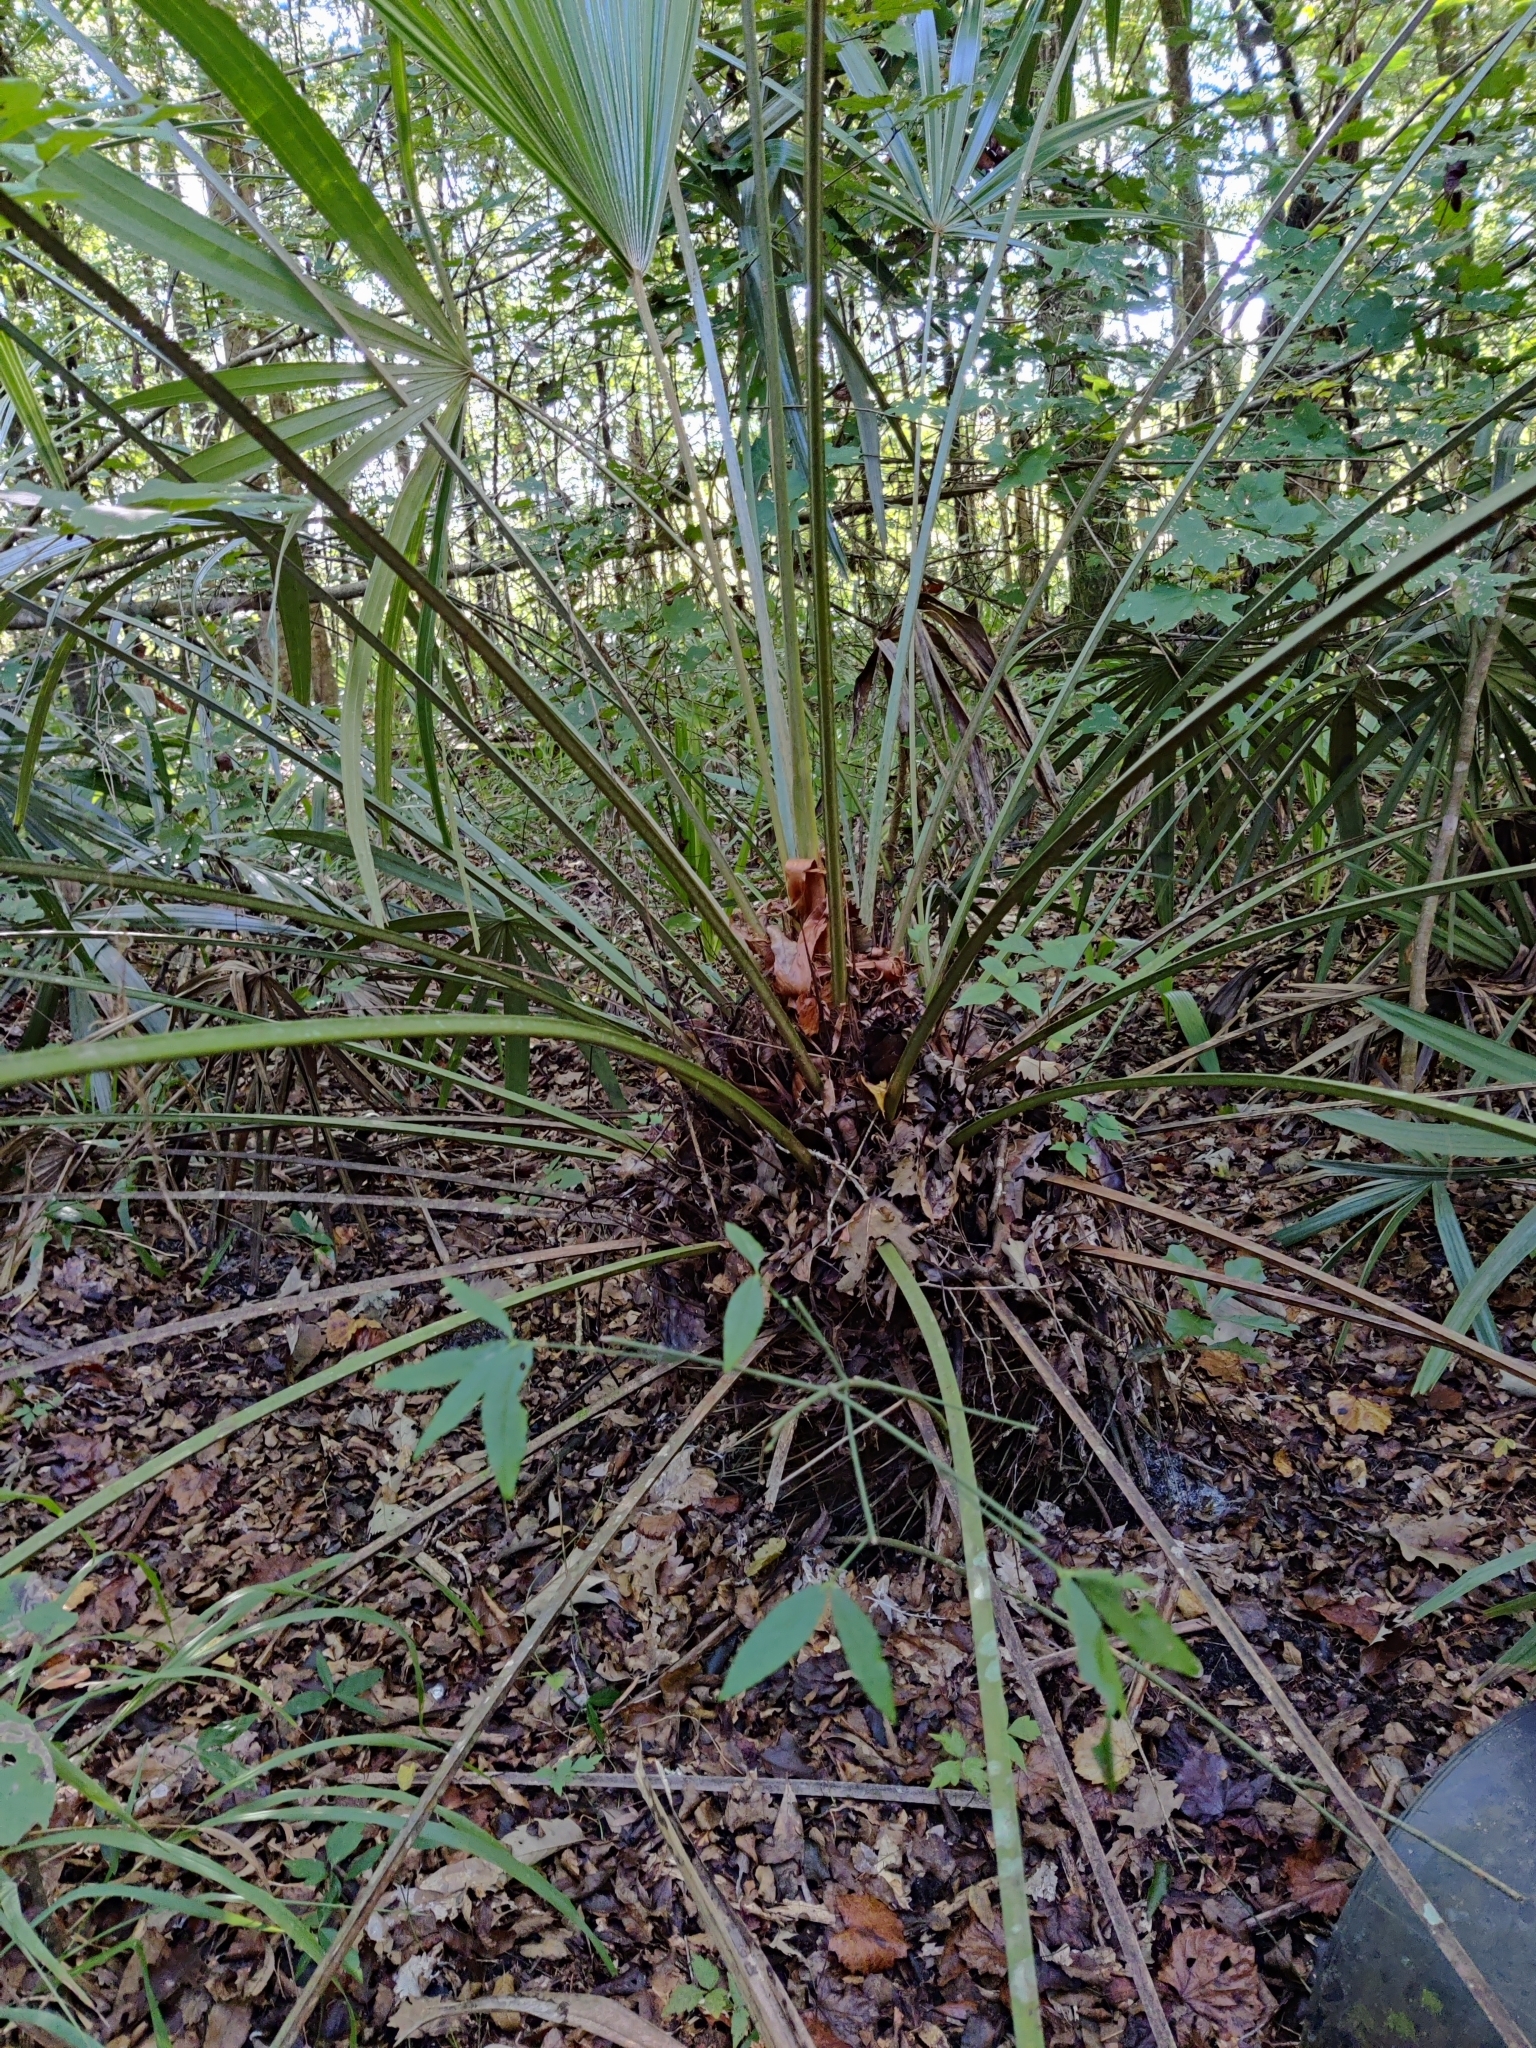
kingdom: Plantae
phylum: Tracheophyta
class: Liliopsida
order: Arecales
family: Arecaceae
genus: Rhapidophyllum
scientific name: Rhapidophyllum hystrix
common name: Porcupine palm
